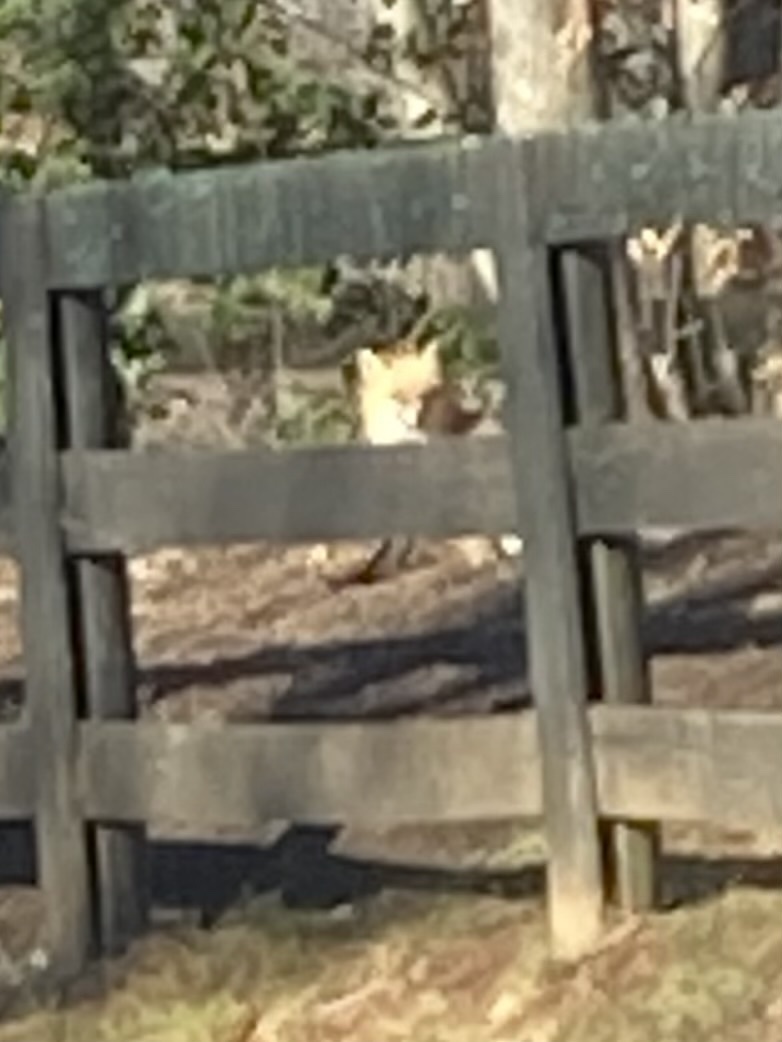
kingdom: Animalia
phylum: Chordata
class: Mammalia
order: Carnivora
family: Canidae
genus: Vulpes
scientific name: Vulpes vulpes
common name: Red fox
